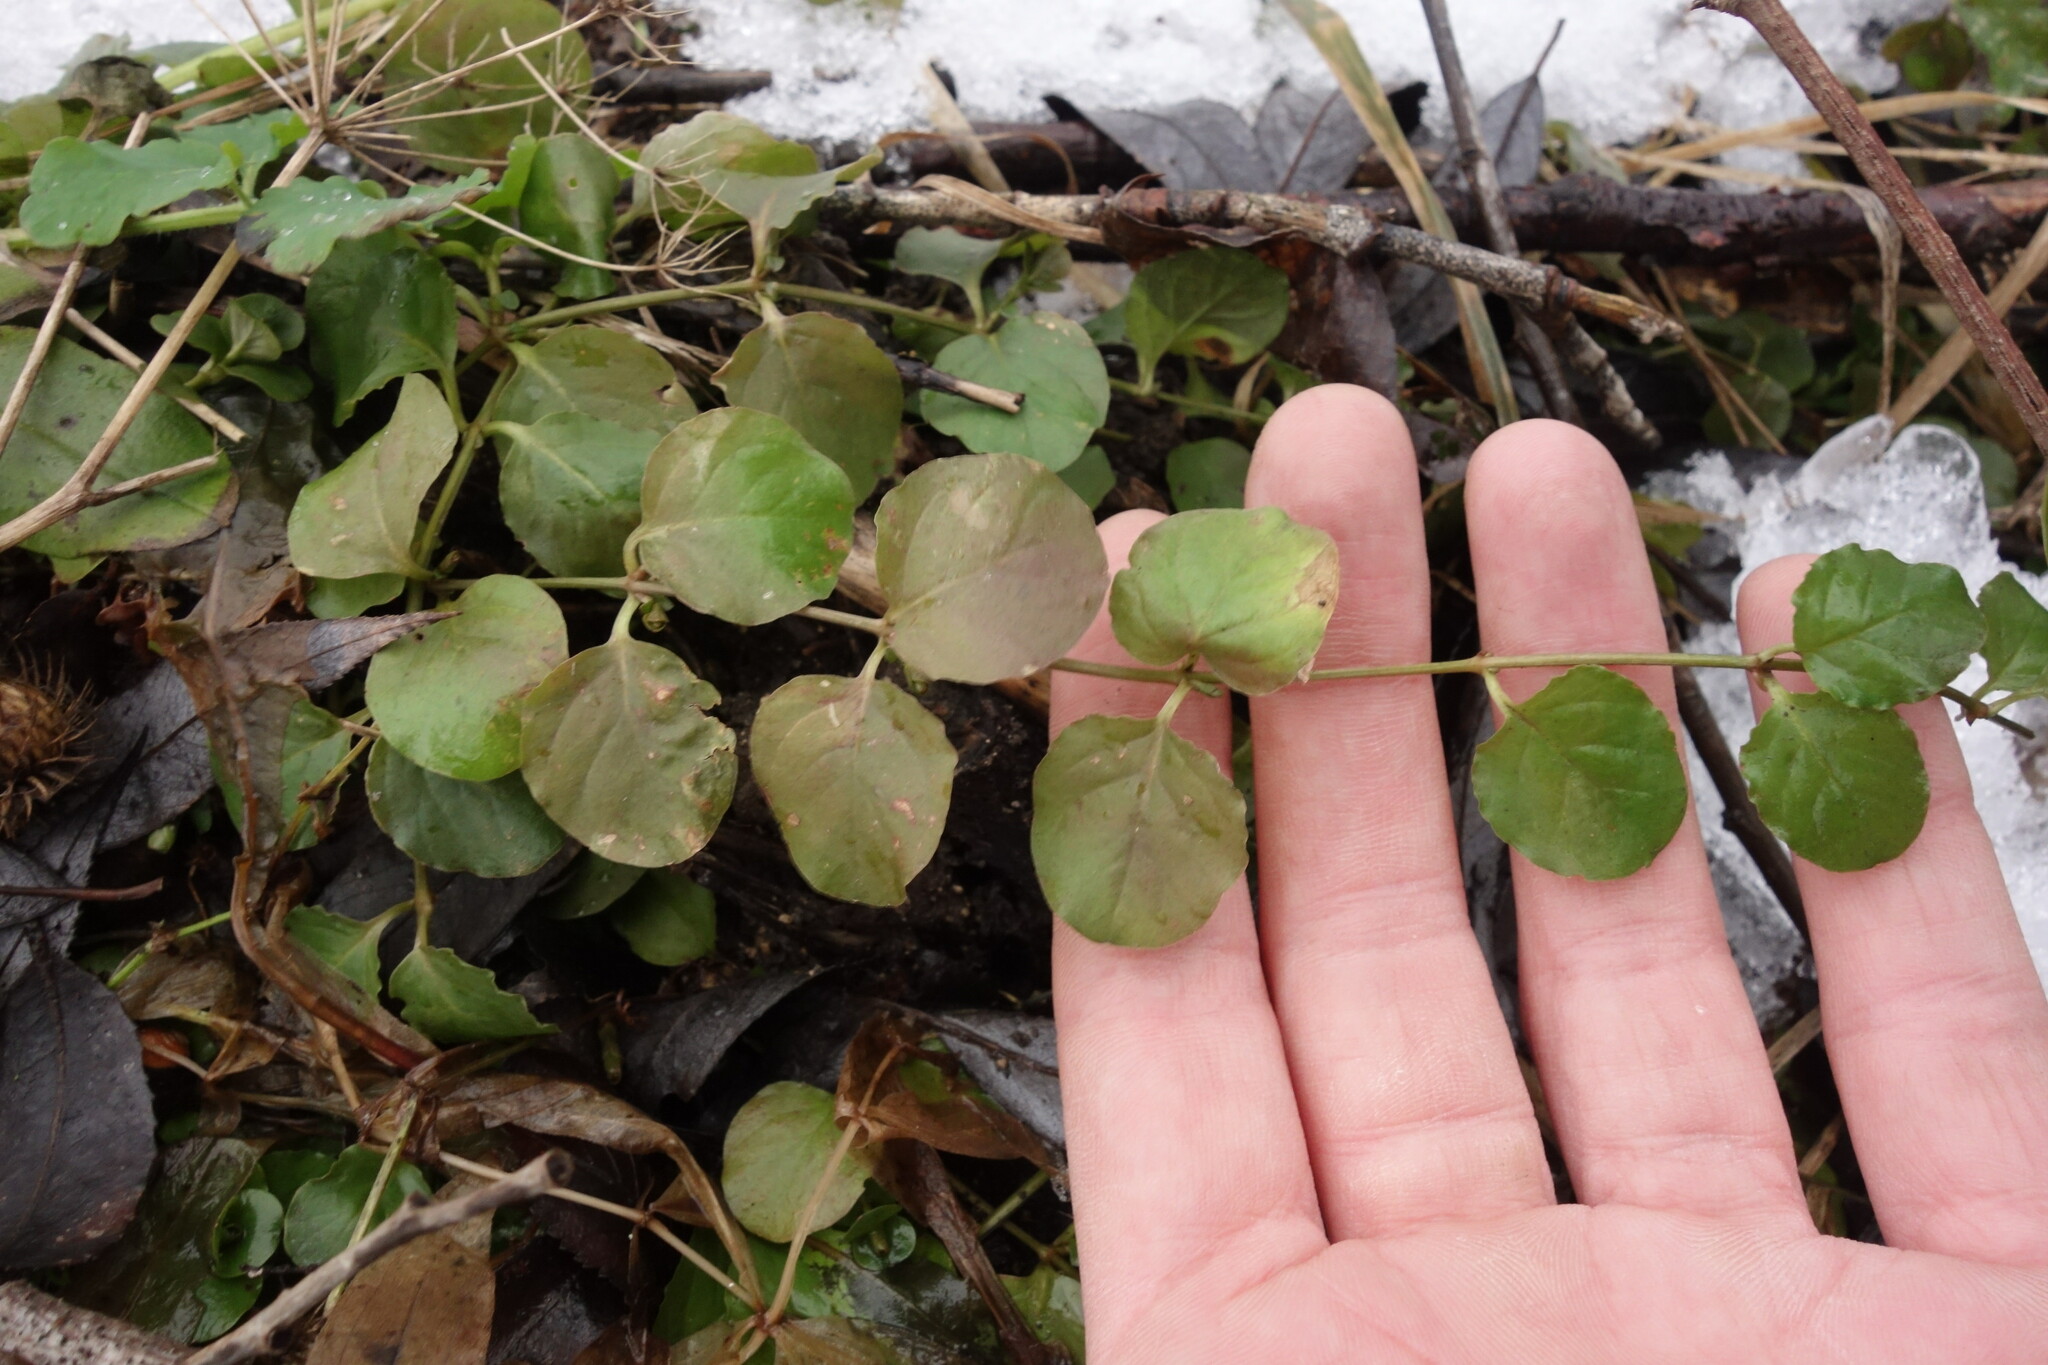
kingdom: Plantae
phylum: Tracheophyta
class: Magnoliopsida
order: Ericales
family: Primulaceae
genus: Lysimachia
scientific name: Lysimachia nummularia
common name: Moneywort
